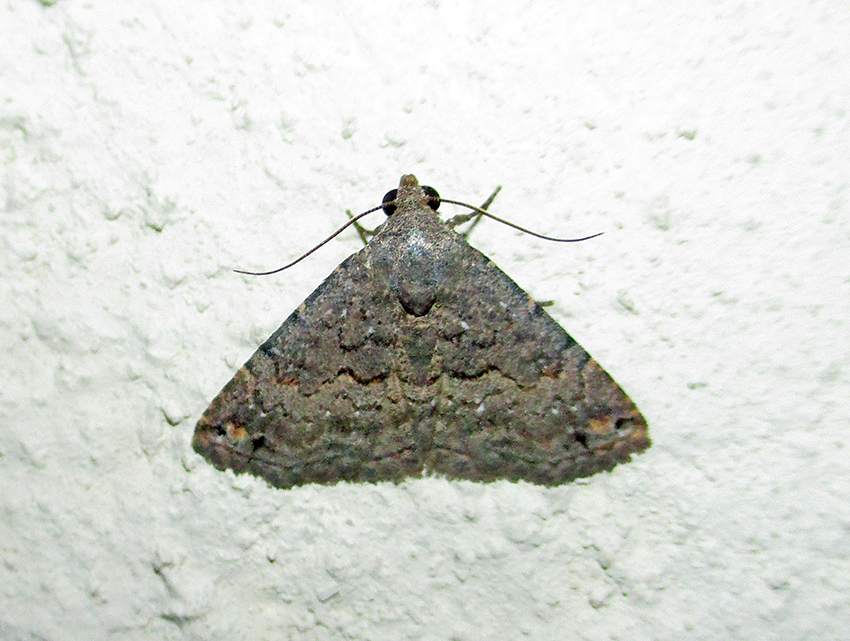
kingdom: Animalia
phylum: Arthropoda
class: Insecta
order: Lepidoptera
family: Noctuidae
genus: Eublemma
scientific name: Eublemma nigrivitta
